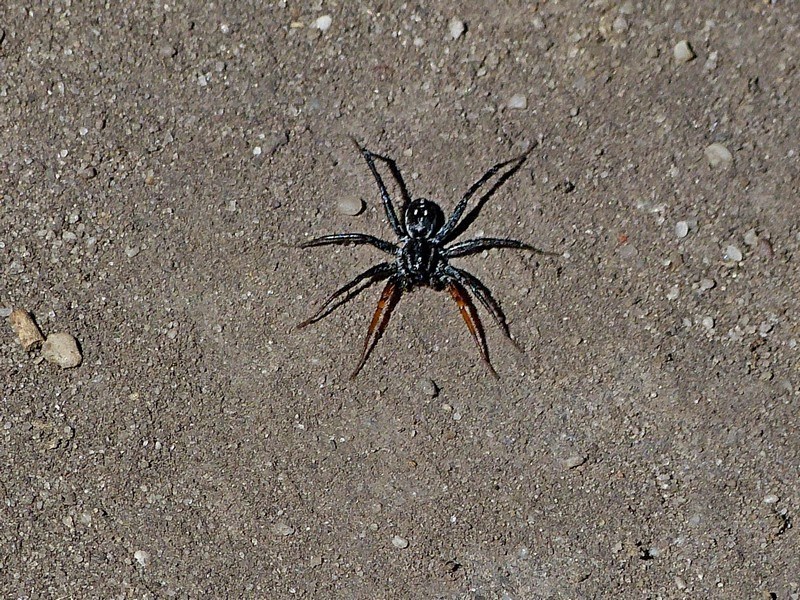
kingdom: Animalia
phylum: Arthropoda
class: Arachnida
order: Araneae
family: Corinnidae
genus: Nyssus
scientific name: Nyssus coloripes
